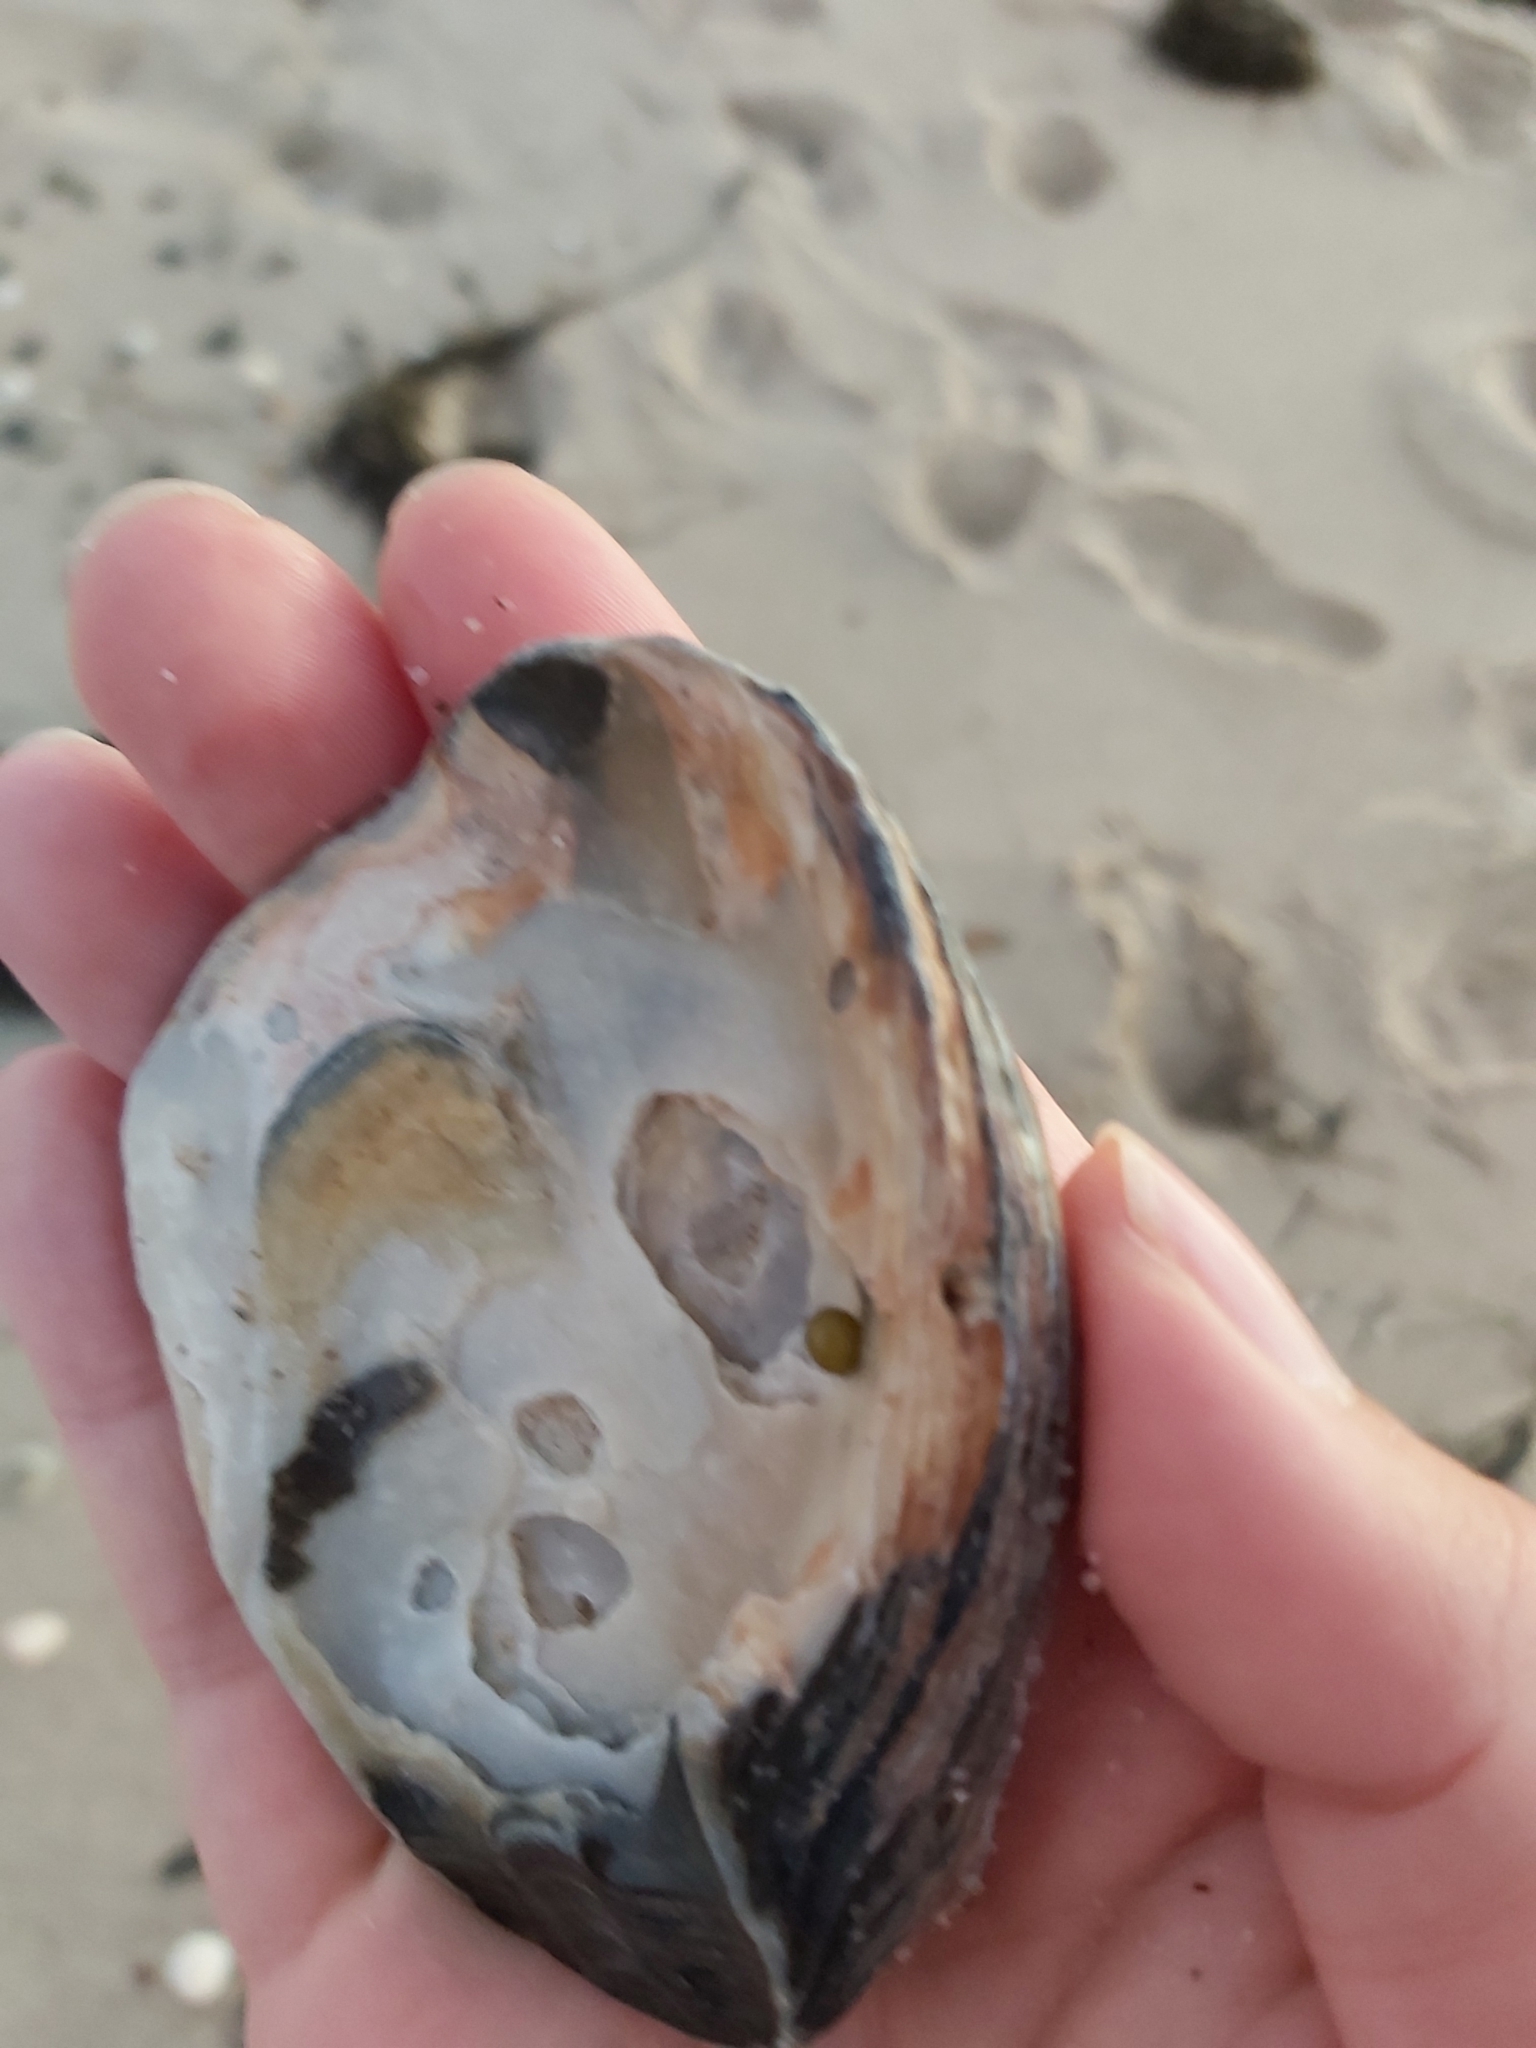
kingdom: Animalia
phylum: Mollusca
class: Bivalvia
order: Ostreida
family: Ostreidae
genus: Ostrea
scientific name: Ostrea angasi
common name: Angasi oyster
